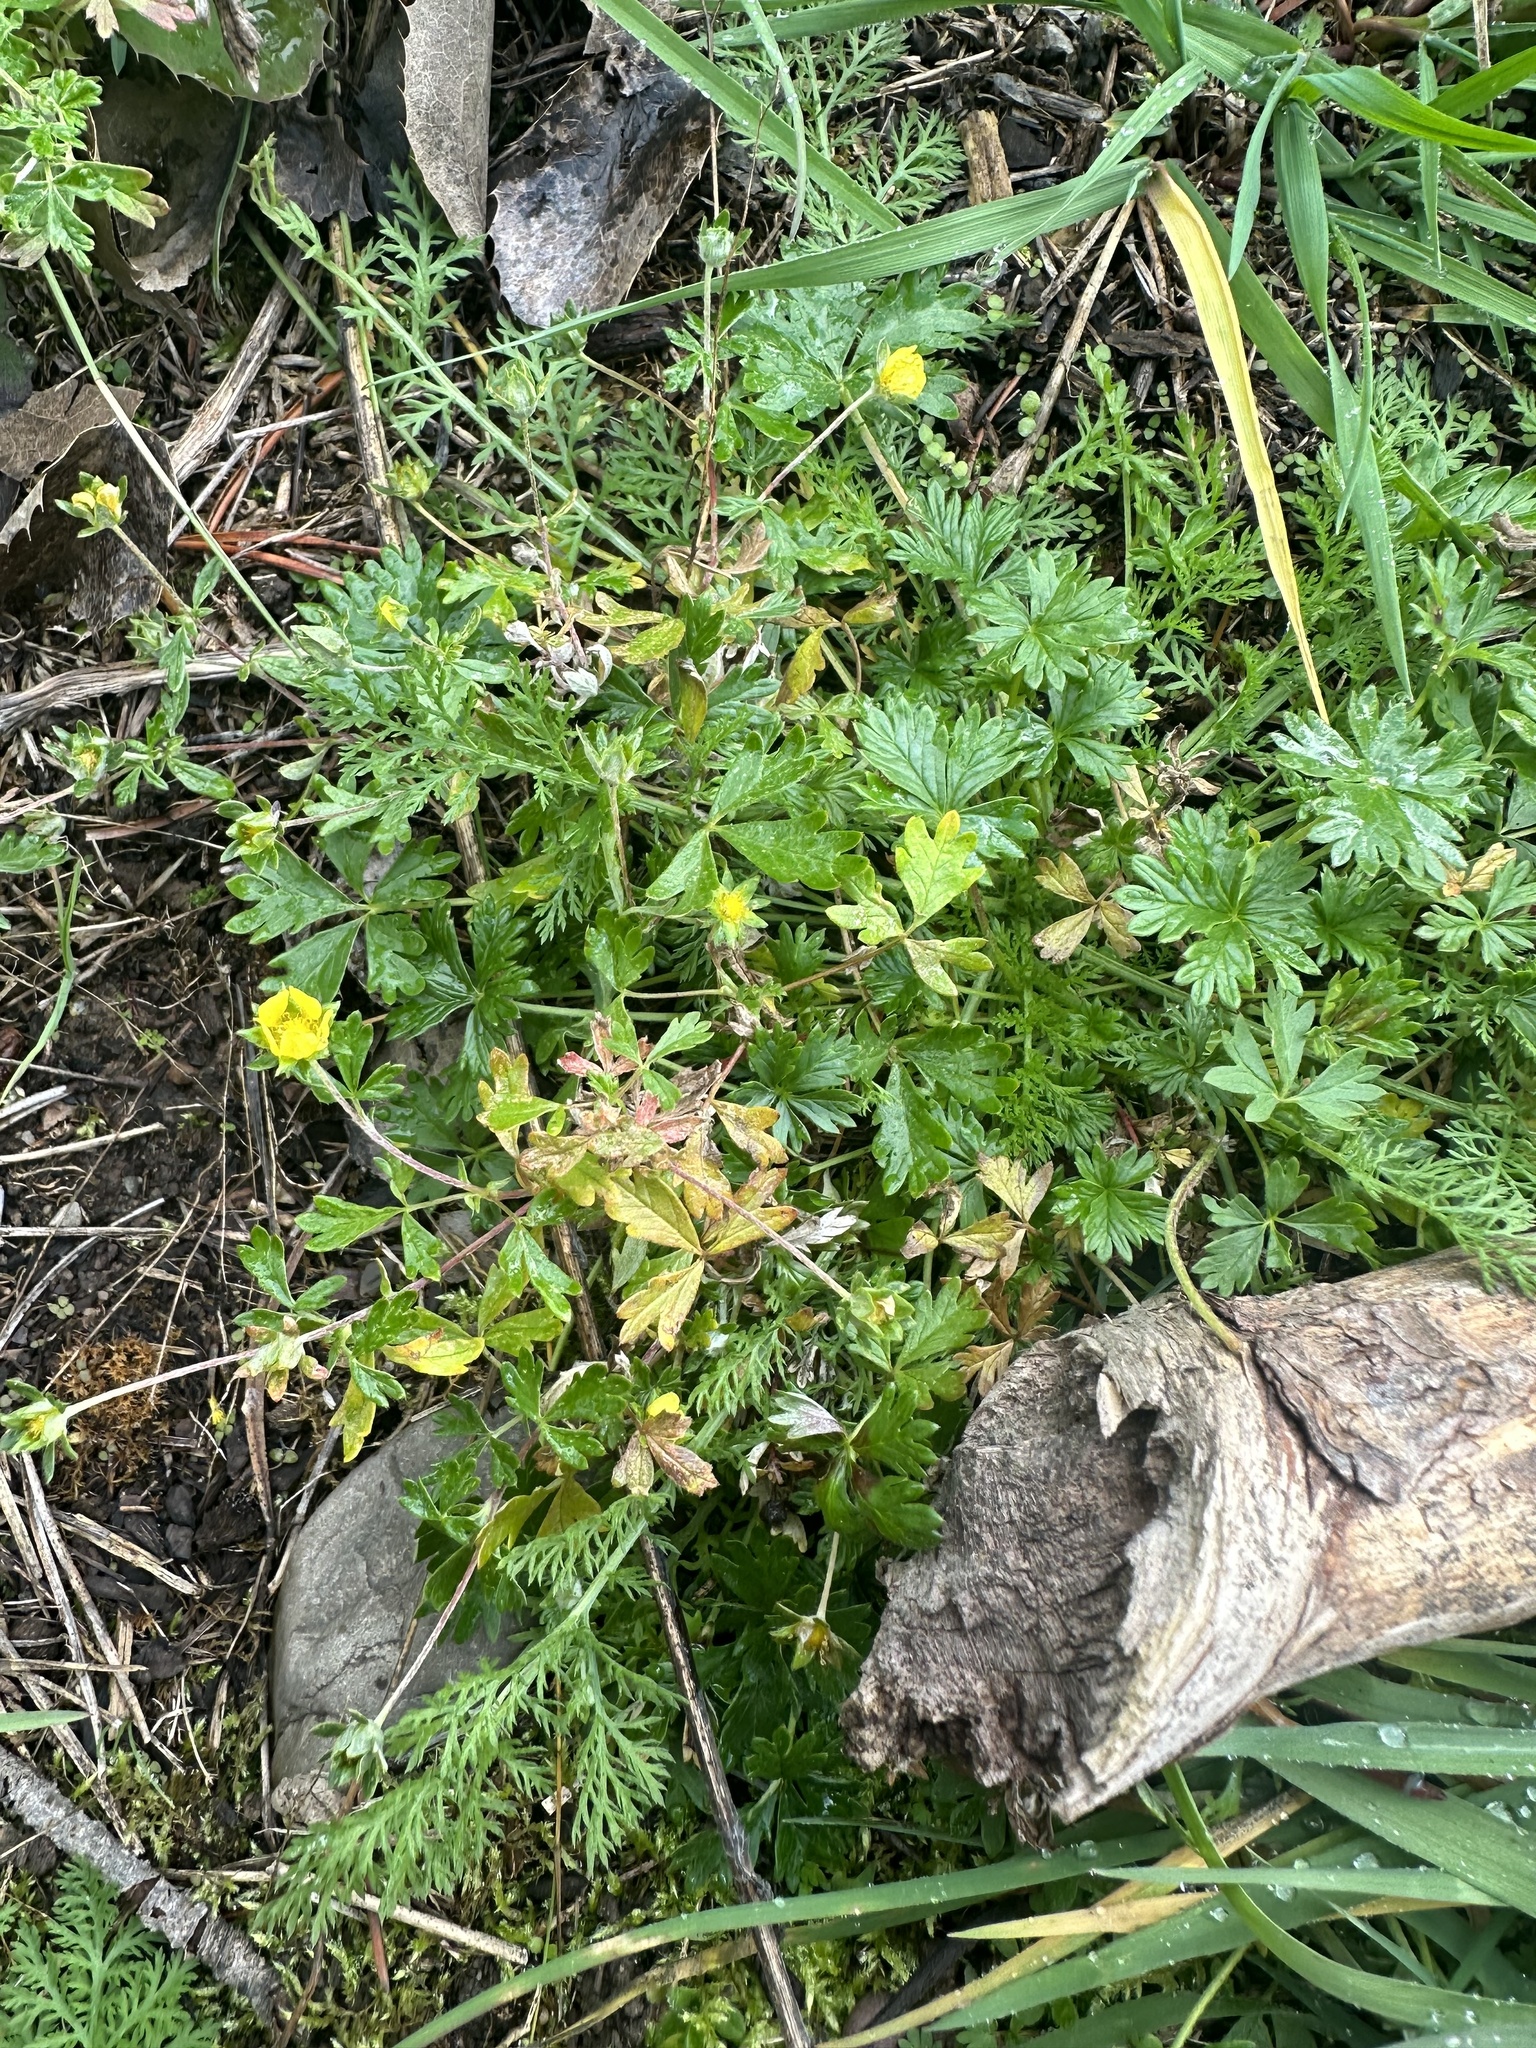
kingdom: Plantae
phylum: Tracheophyta
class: Magnoliopsida
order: Rosales
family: Rosaceae
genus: Potentilla
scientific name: Potentilla argentea
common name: Hoary cinquefoil
